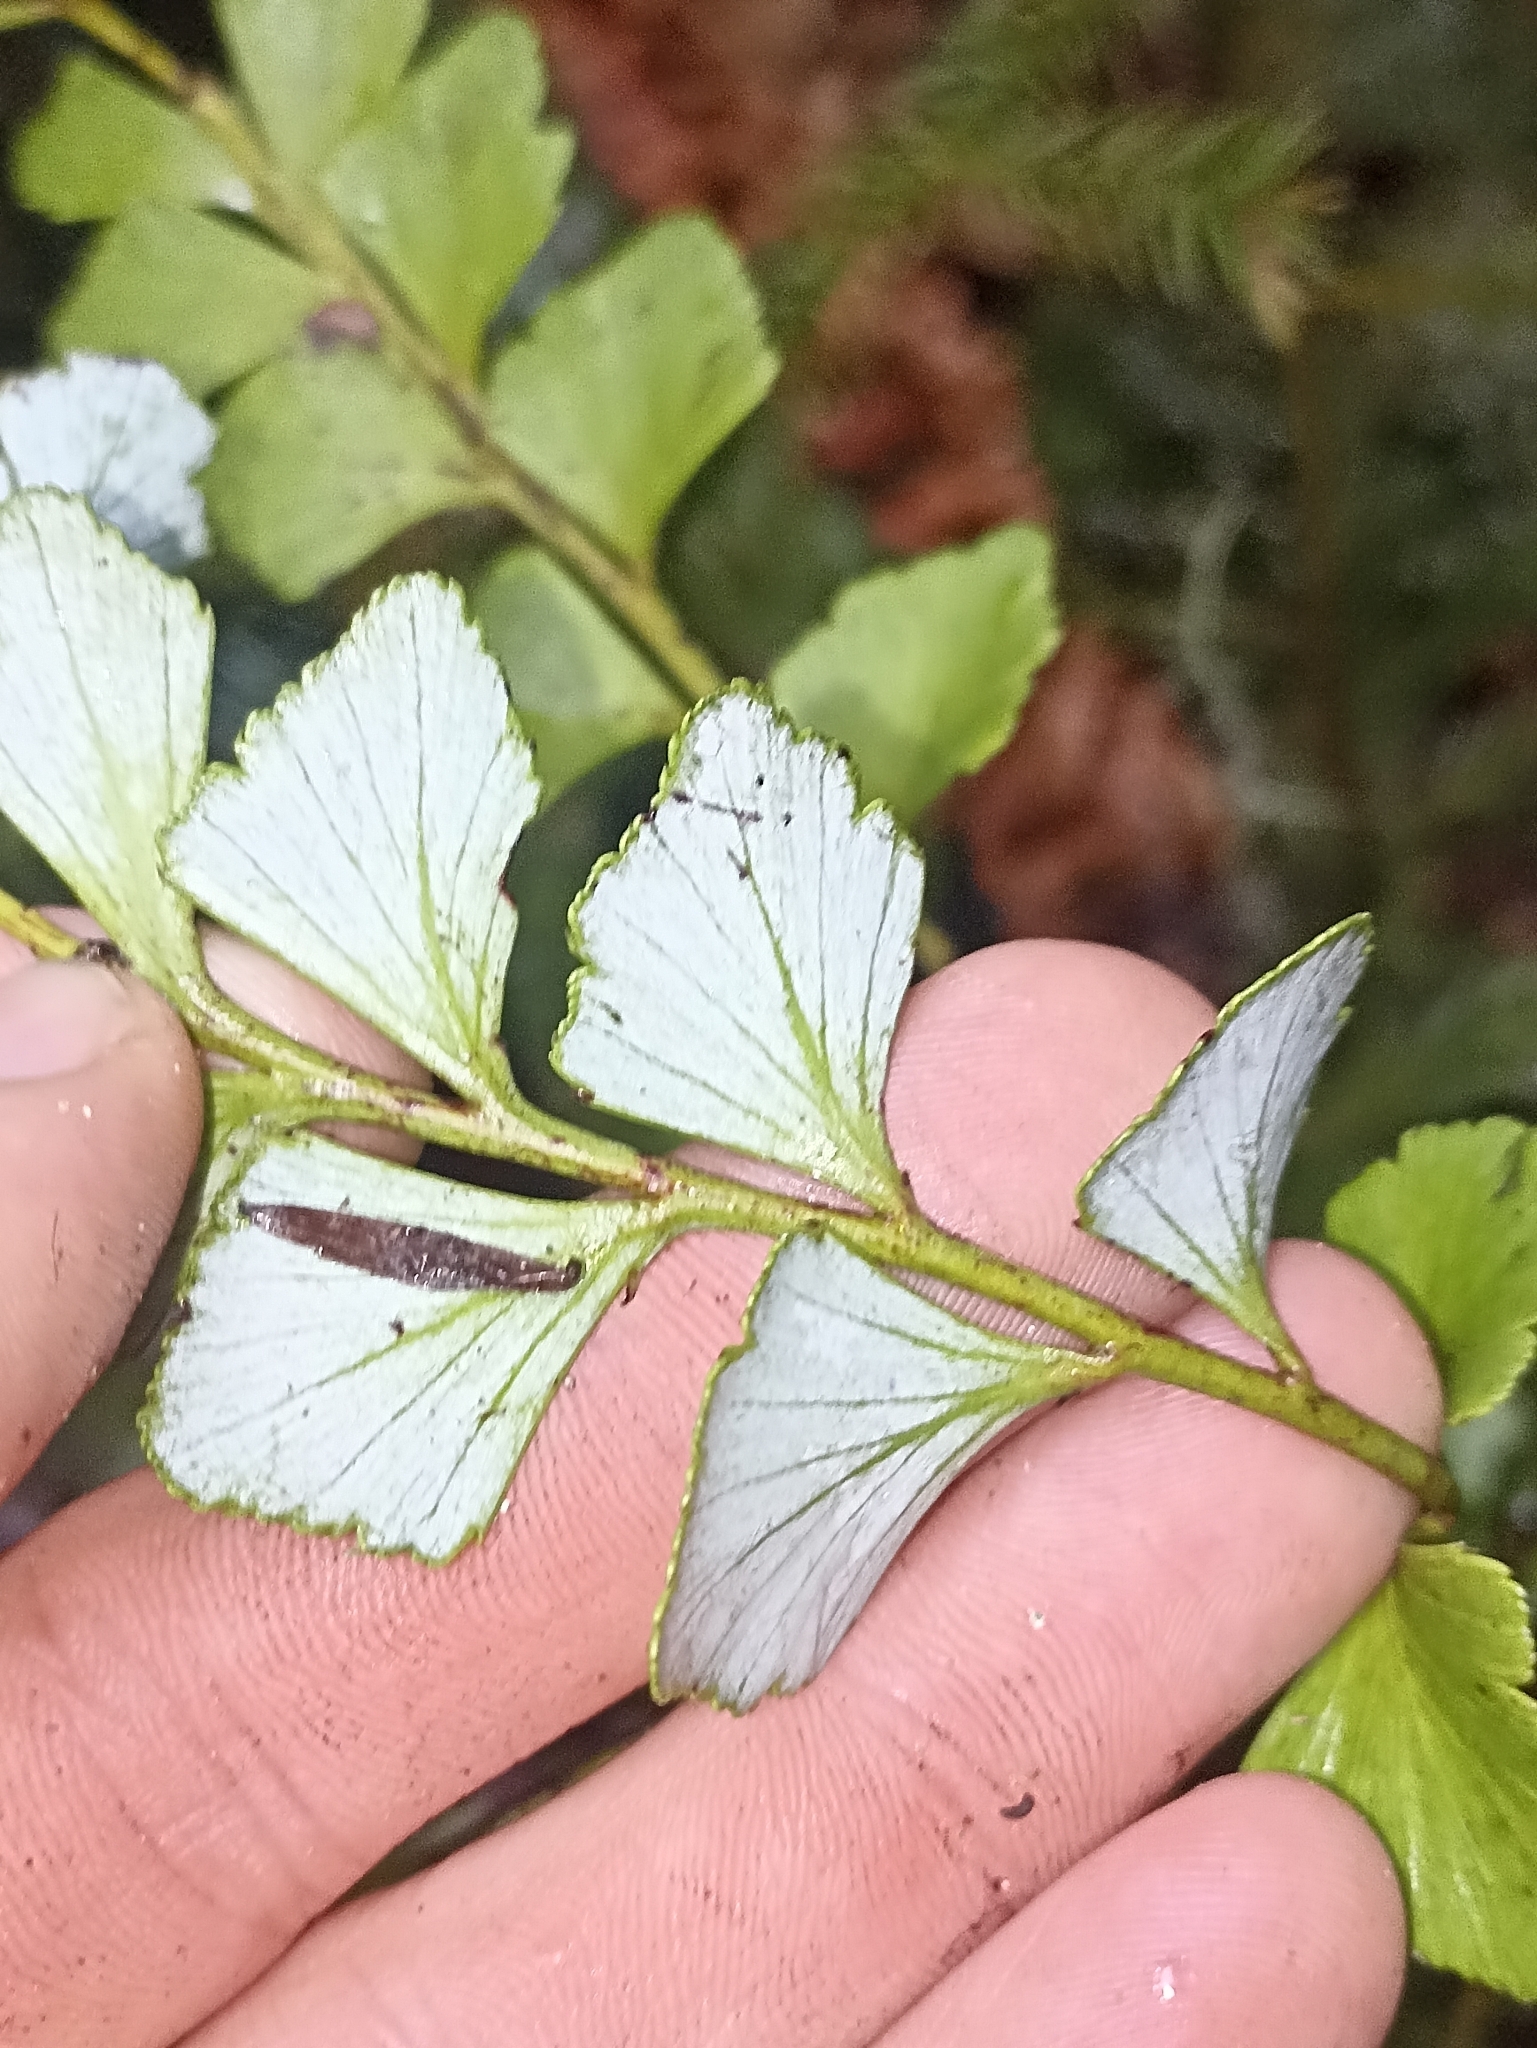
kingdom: Plantae
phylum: Tracheophyta
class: Pinopsida
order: Pinales
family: Phyllocladaceae
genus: Phyllocladus
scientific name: Phyllocladus toatoa
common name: Celery-top pine
